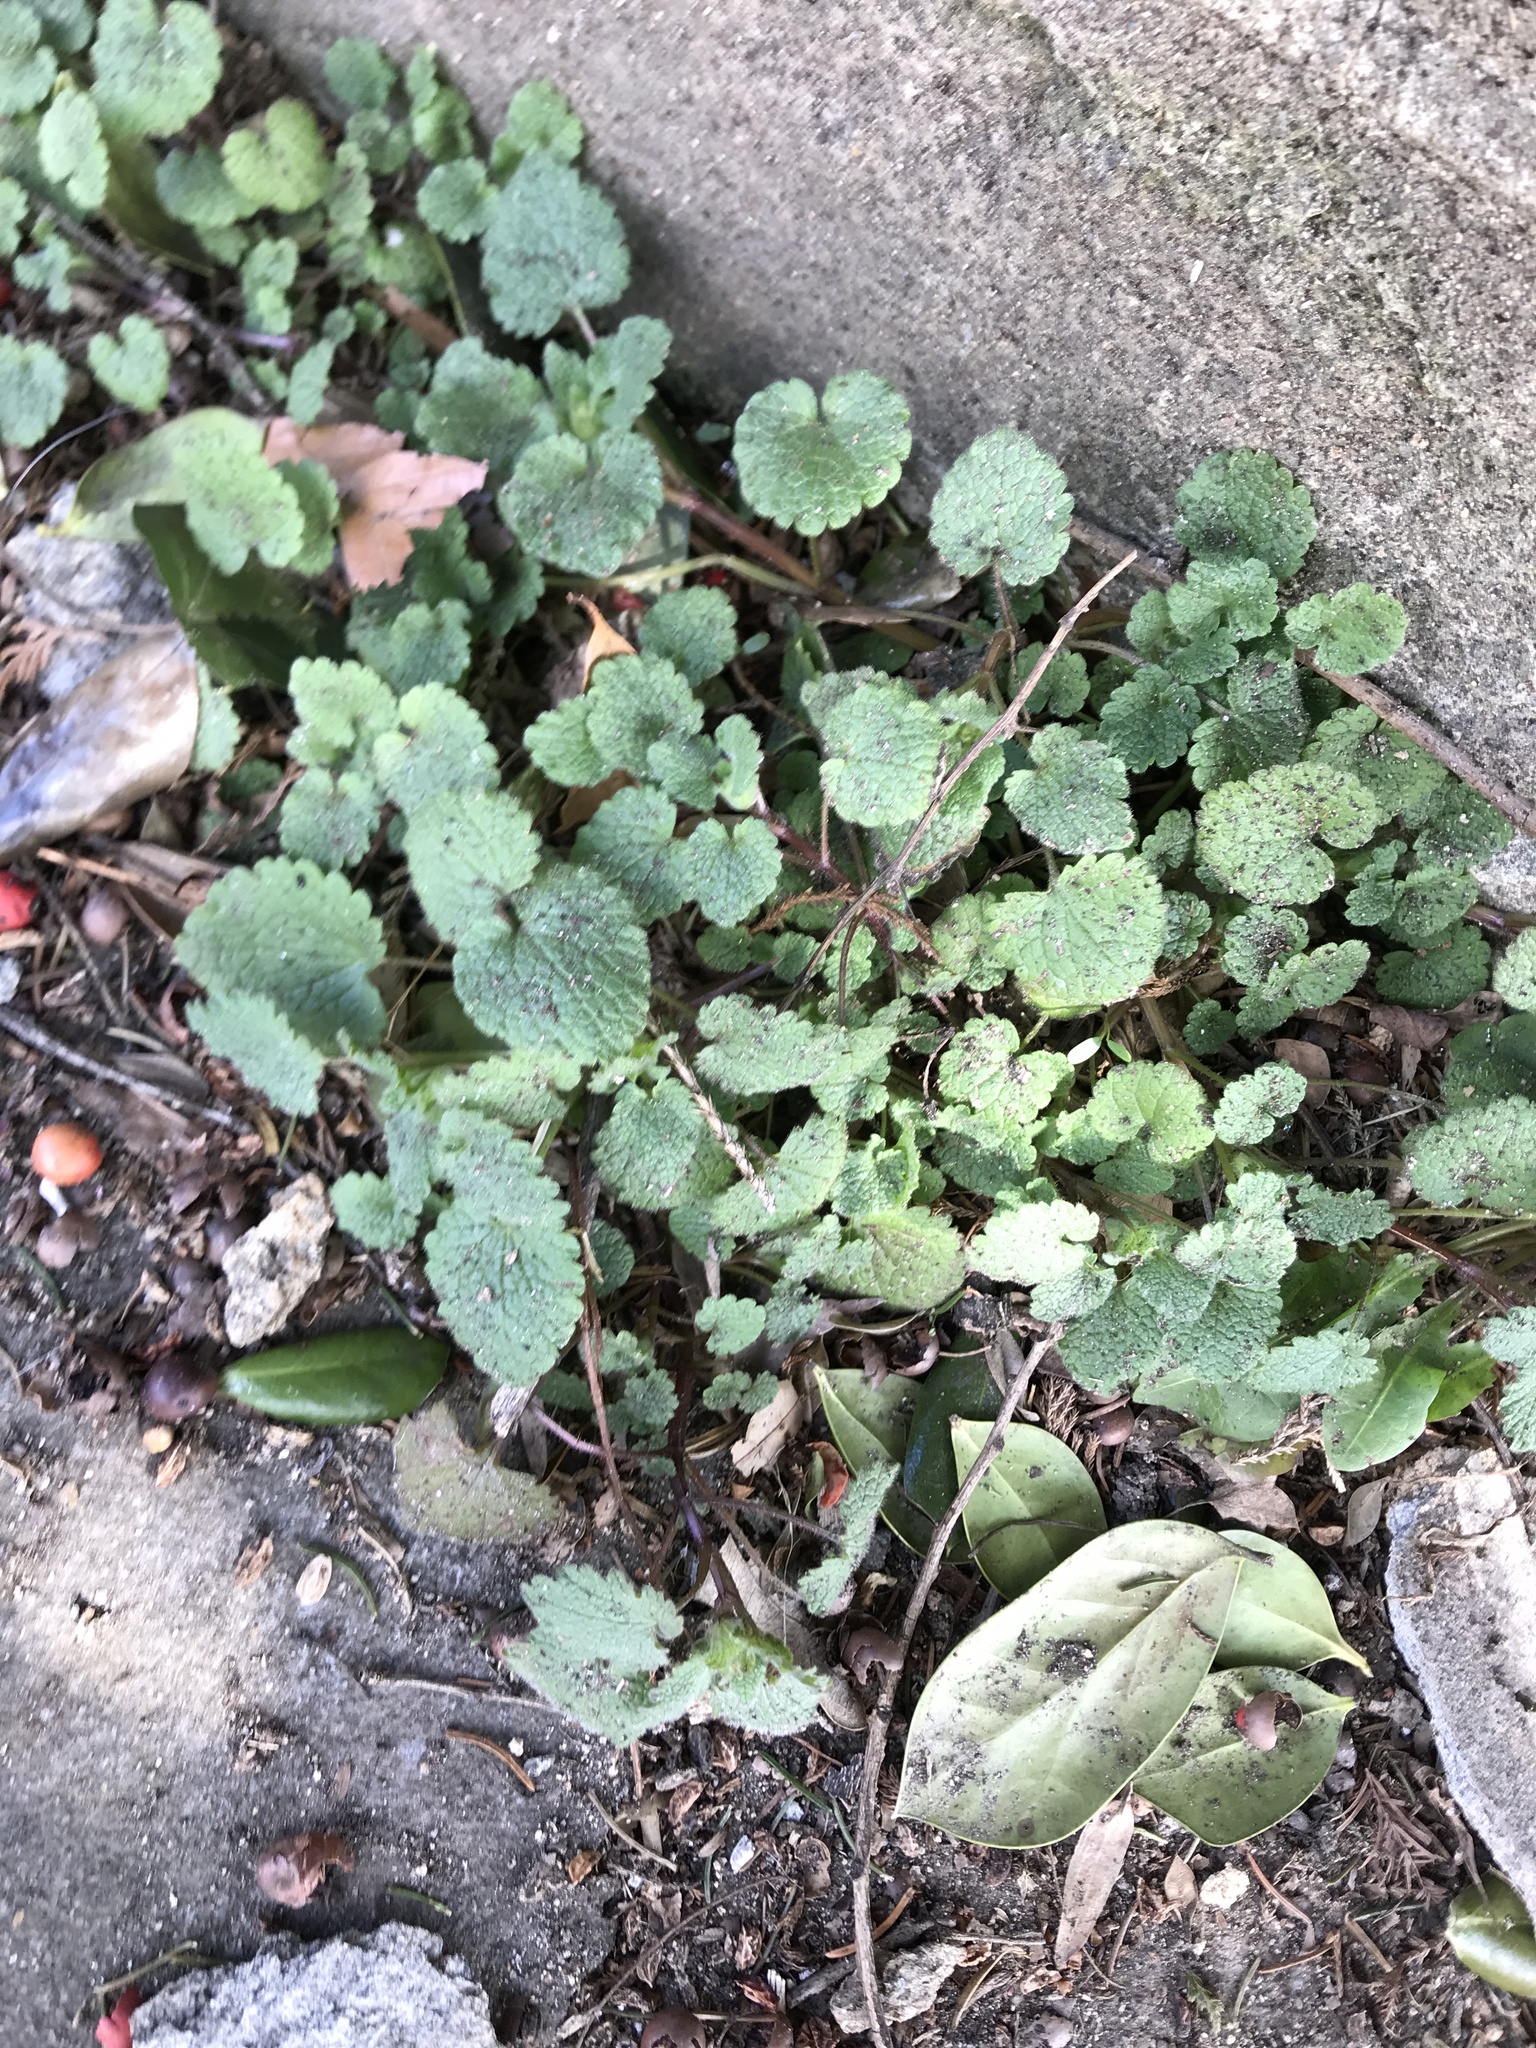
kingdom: Plantae
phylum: Tracheophyta
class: Magnoliopsida
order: Lamiales
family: Lamiaceae
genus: Lamium
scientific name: Lamium purpureum
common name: Red dead-nettle
